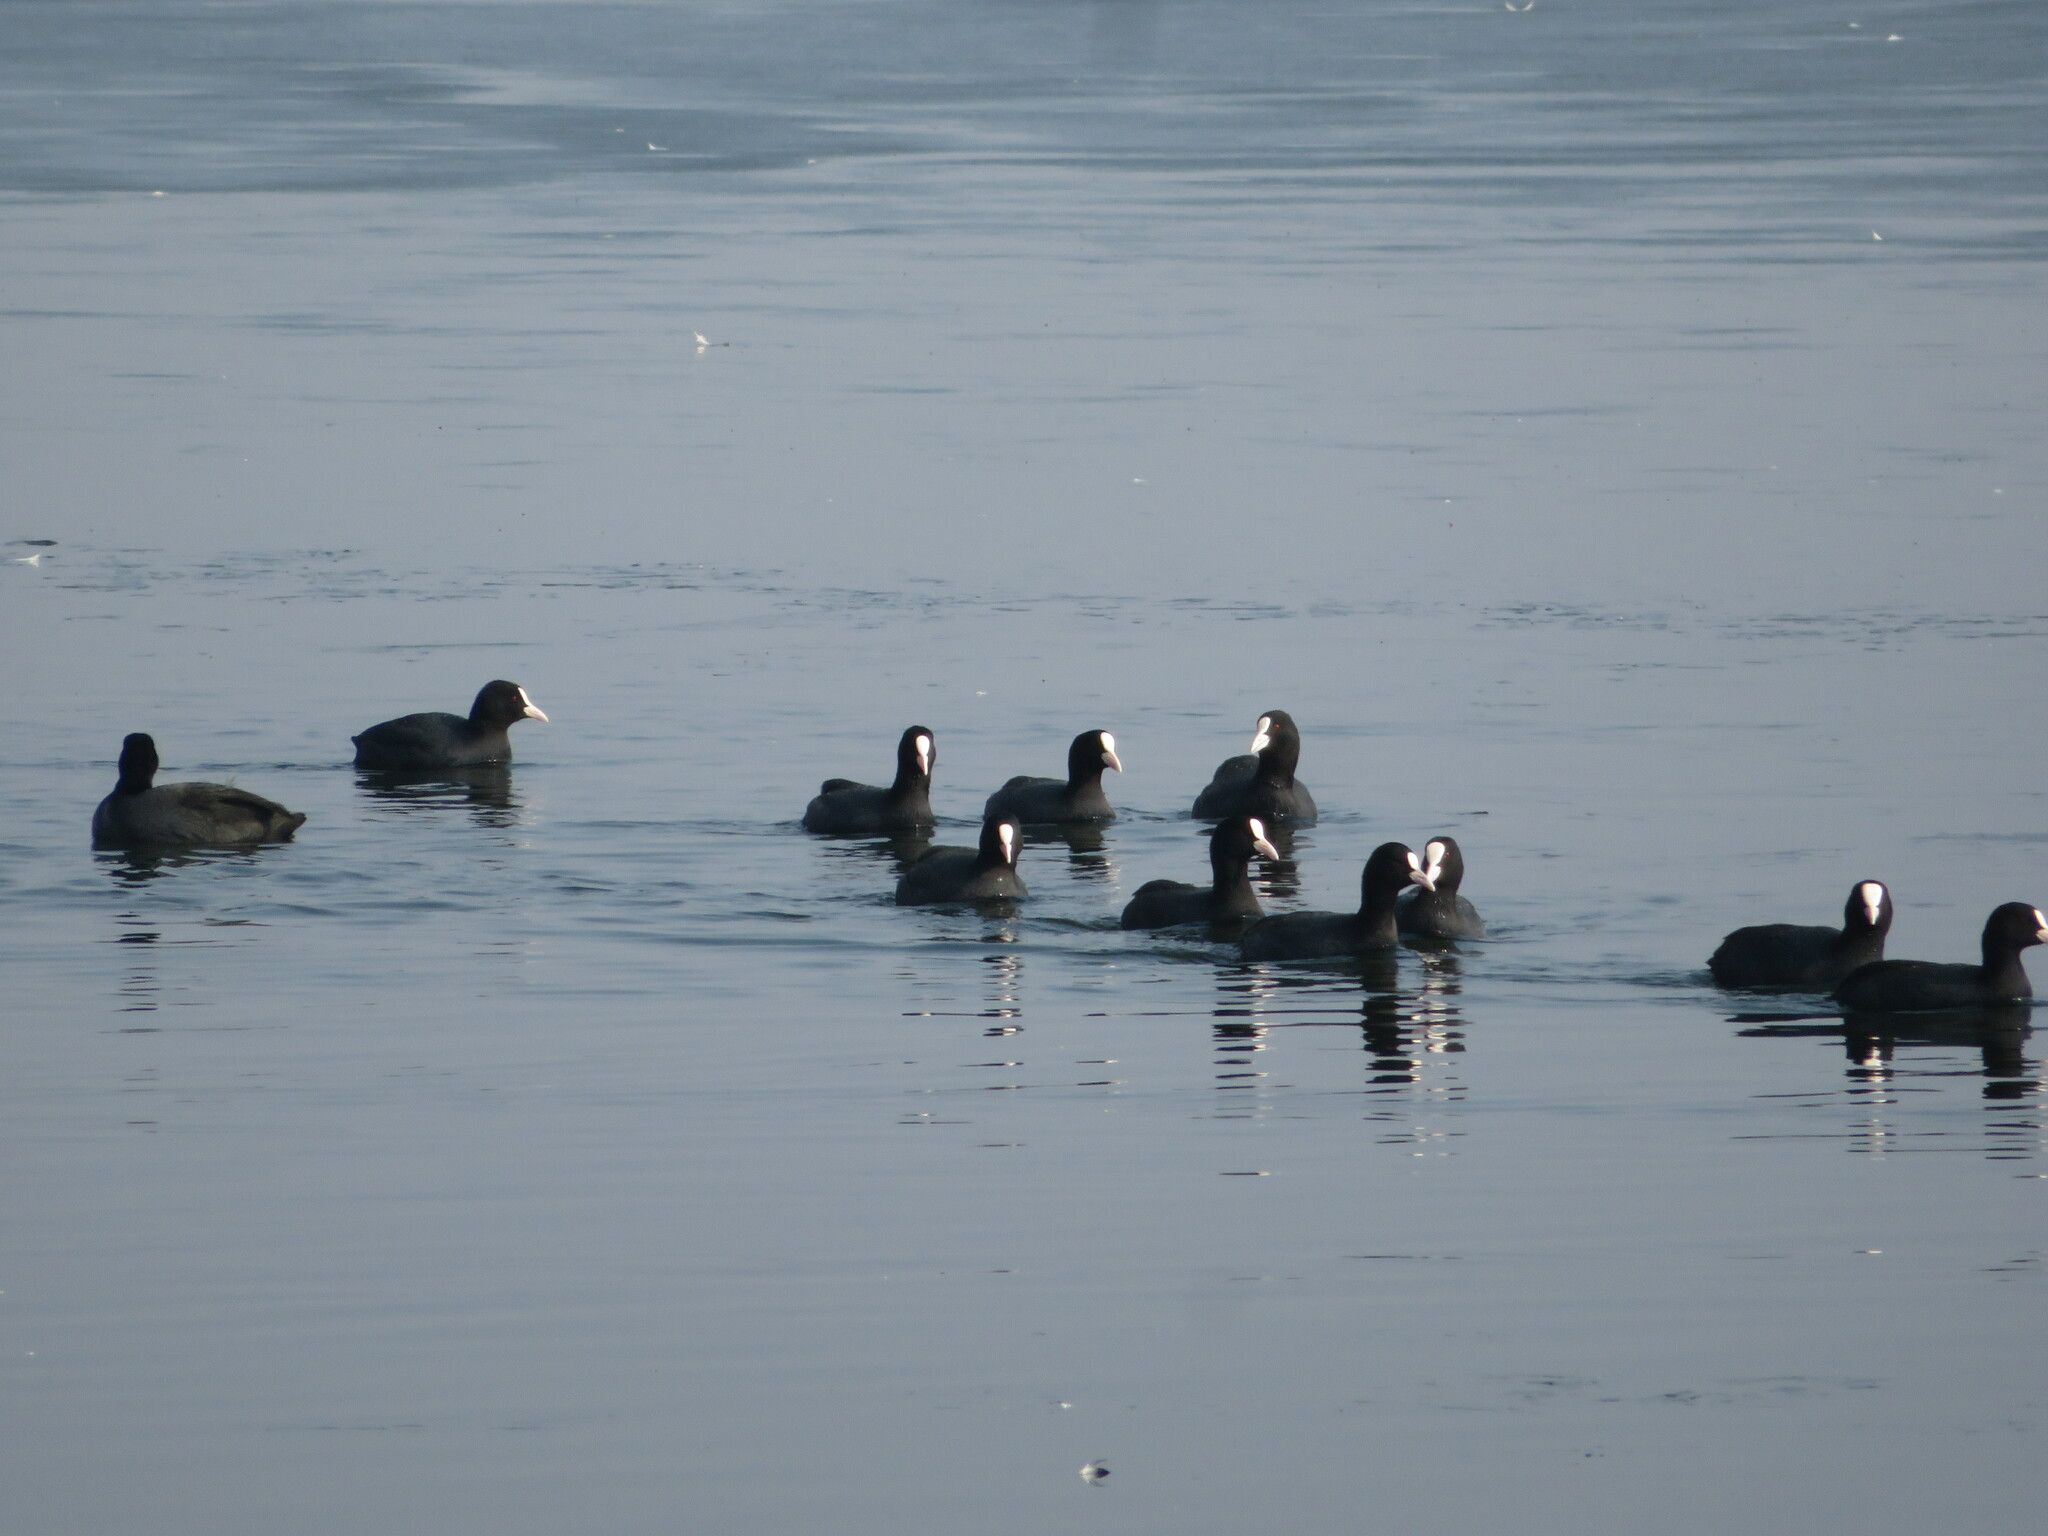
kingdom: Animalia
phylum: Chordata
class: Aves
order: Gruiformes
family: Rallidae
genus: Fulica
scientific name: Fulica atra
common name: Eurasian coot
